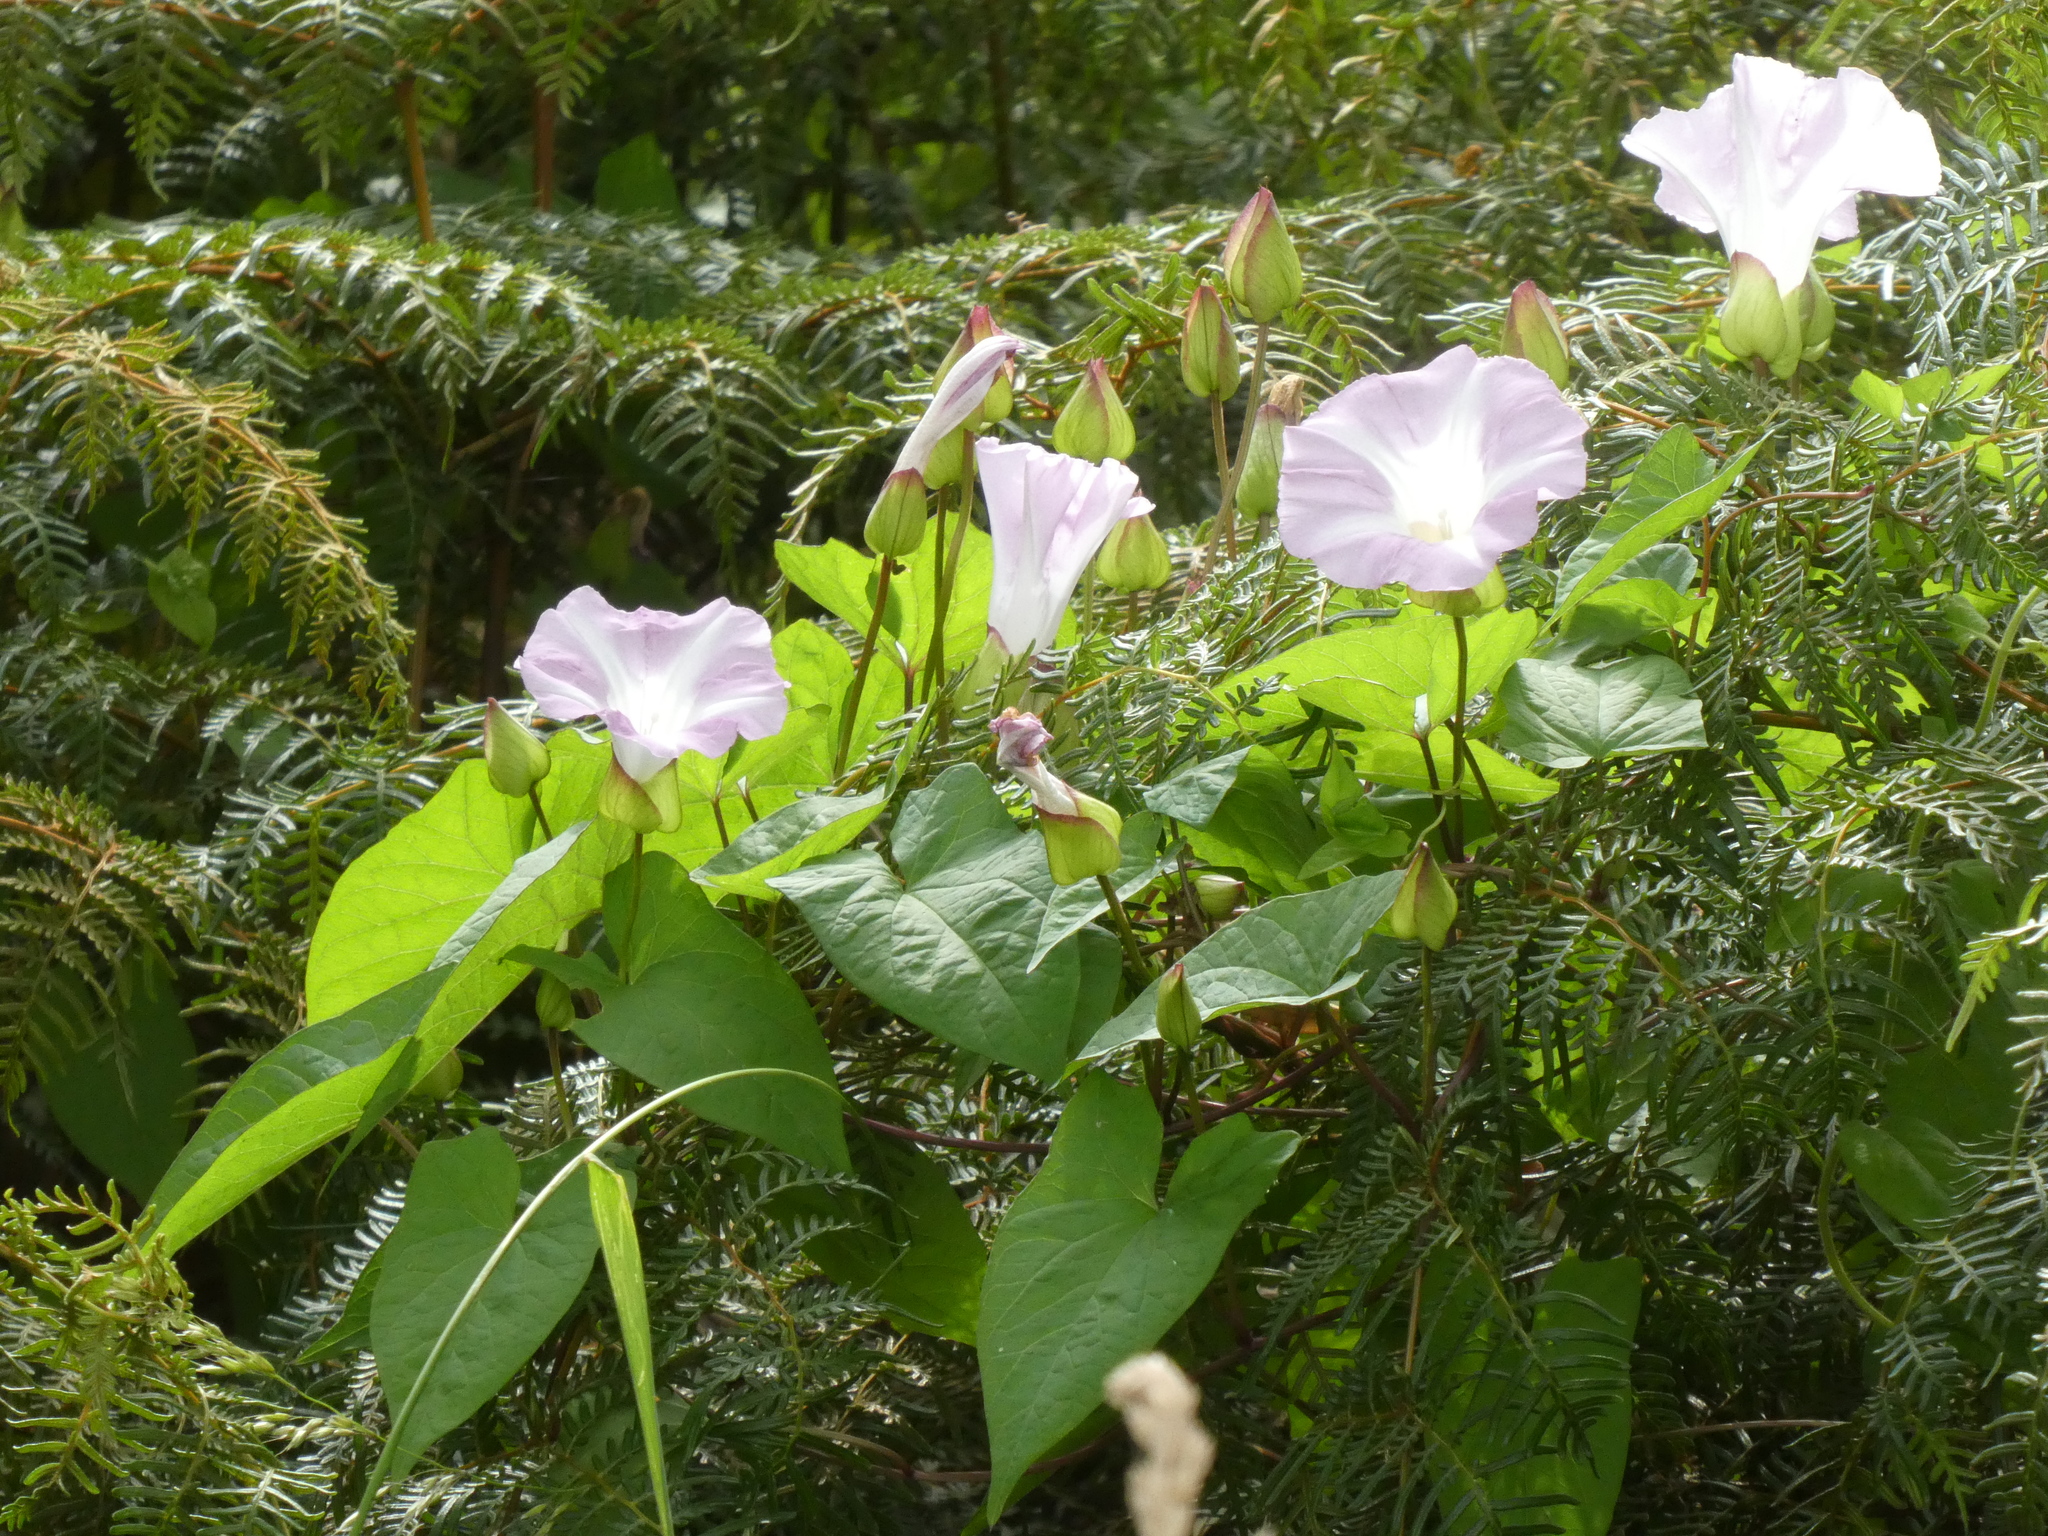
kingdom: Plantae
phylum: Tracheophyta
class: Magnoliopsida
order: Solanales
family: Convolvulaceae
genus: Calystegia
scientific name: Calystegia
